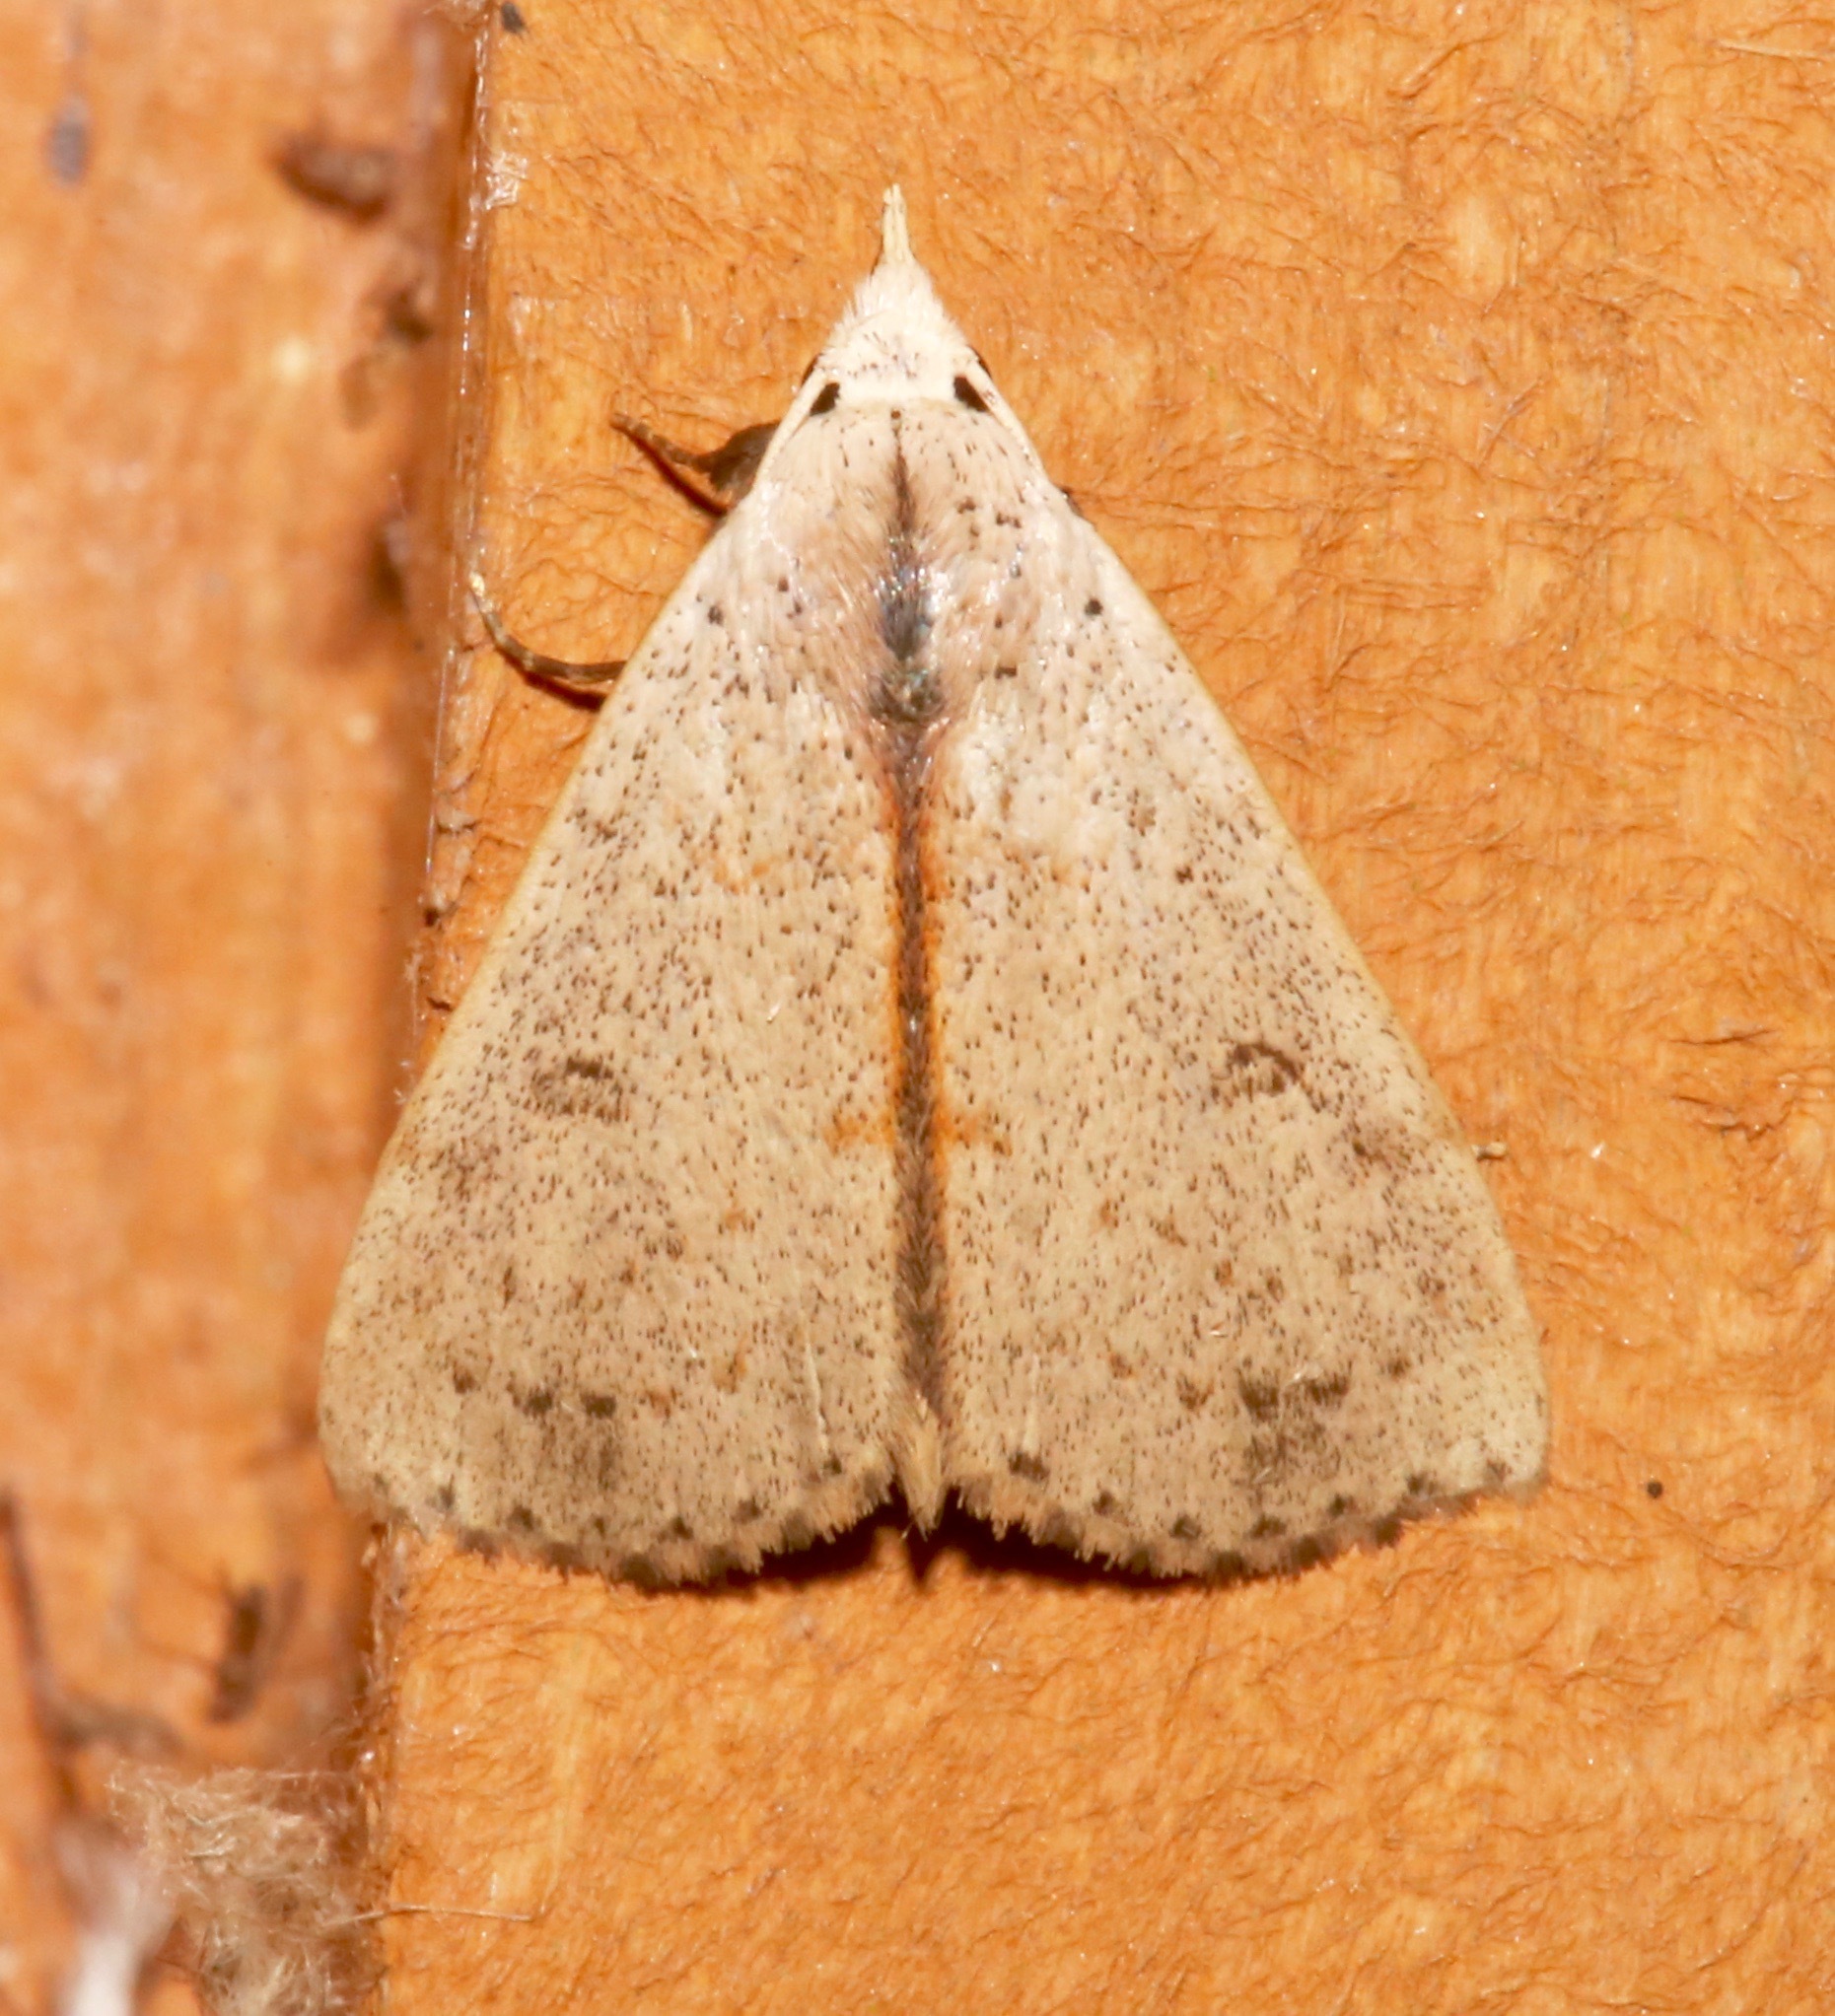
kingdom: Animalia
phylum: Arthropoda
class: Insecta
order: Lepidoptera
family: Erebidae
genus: Scolecocampa
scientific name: Scolecocampa liburna
